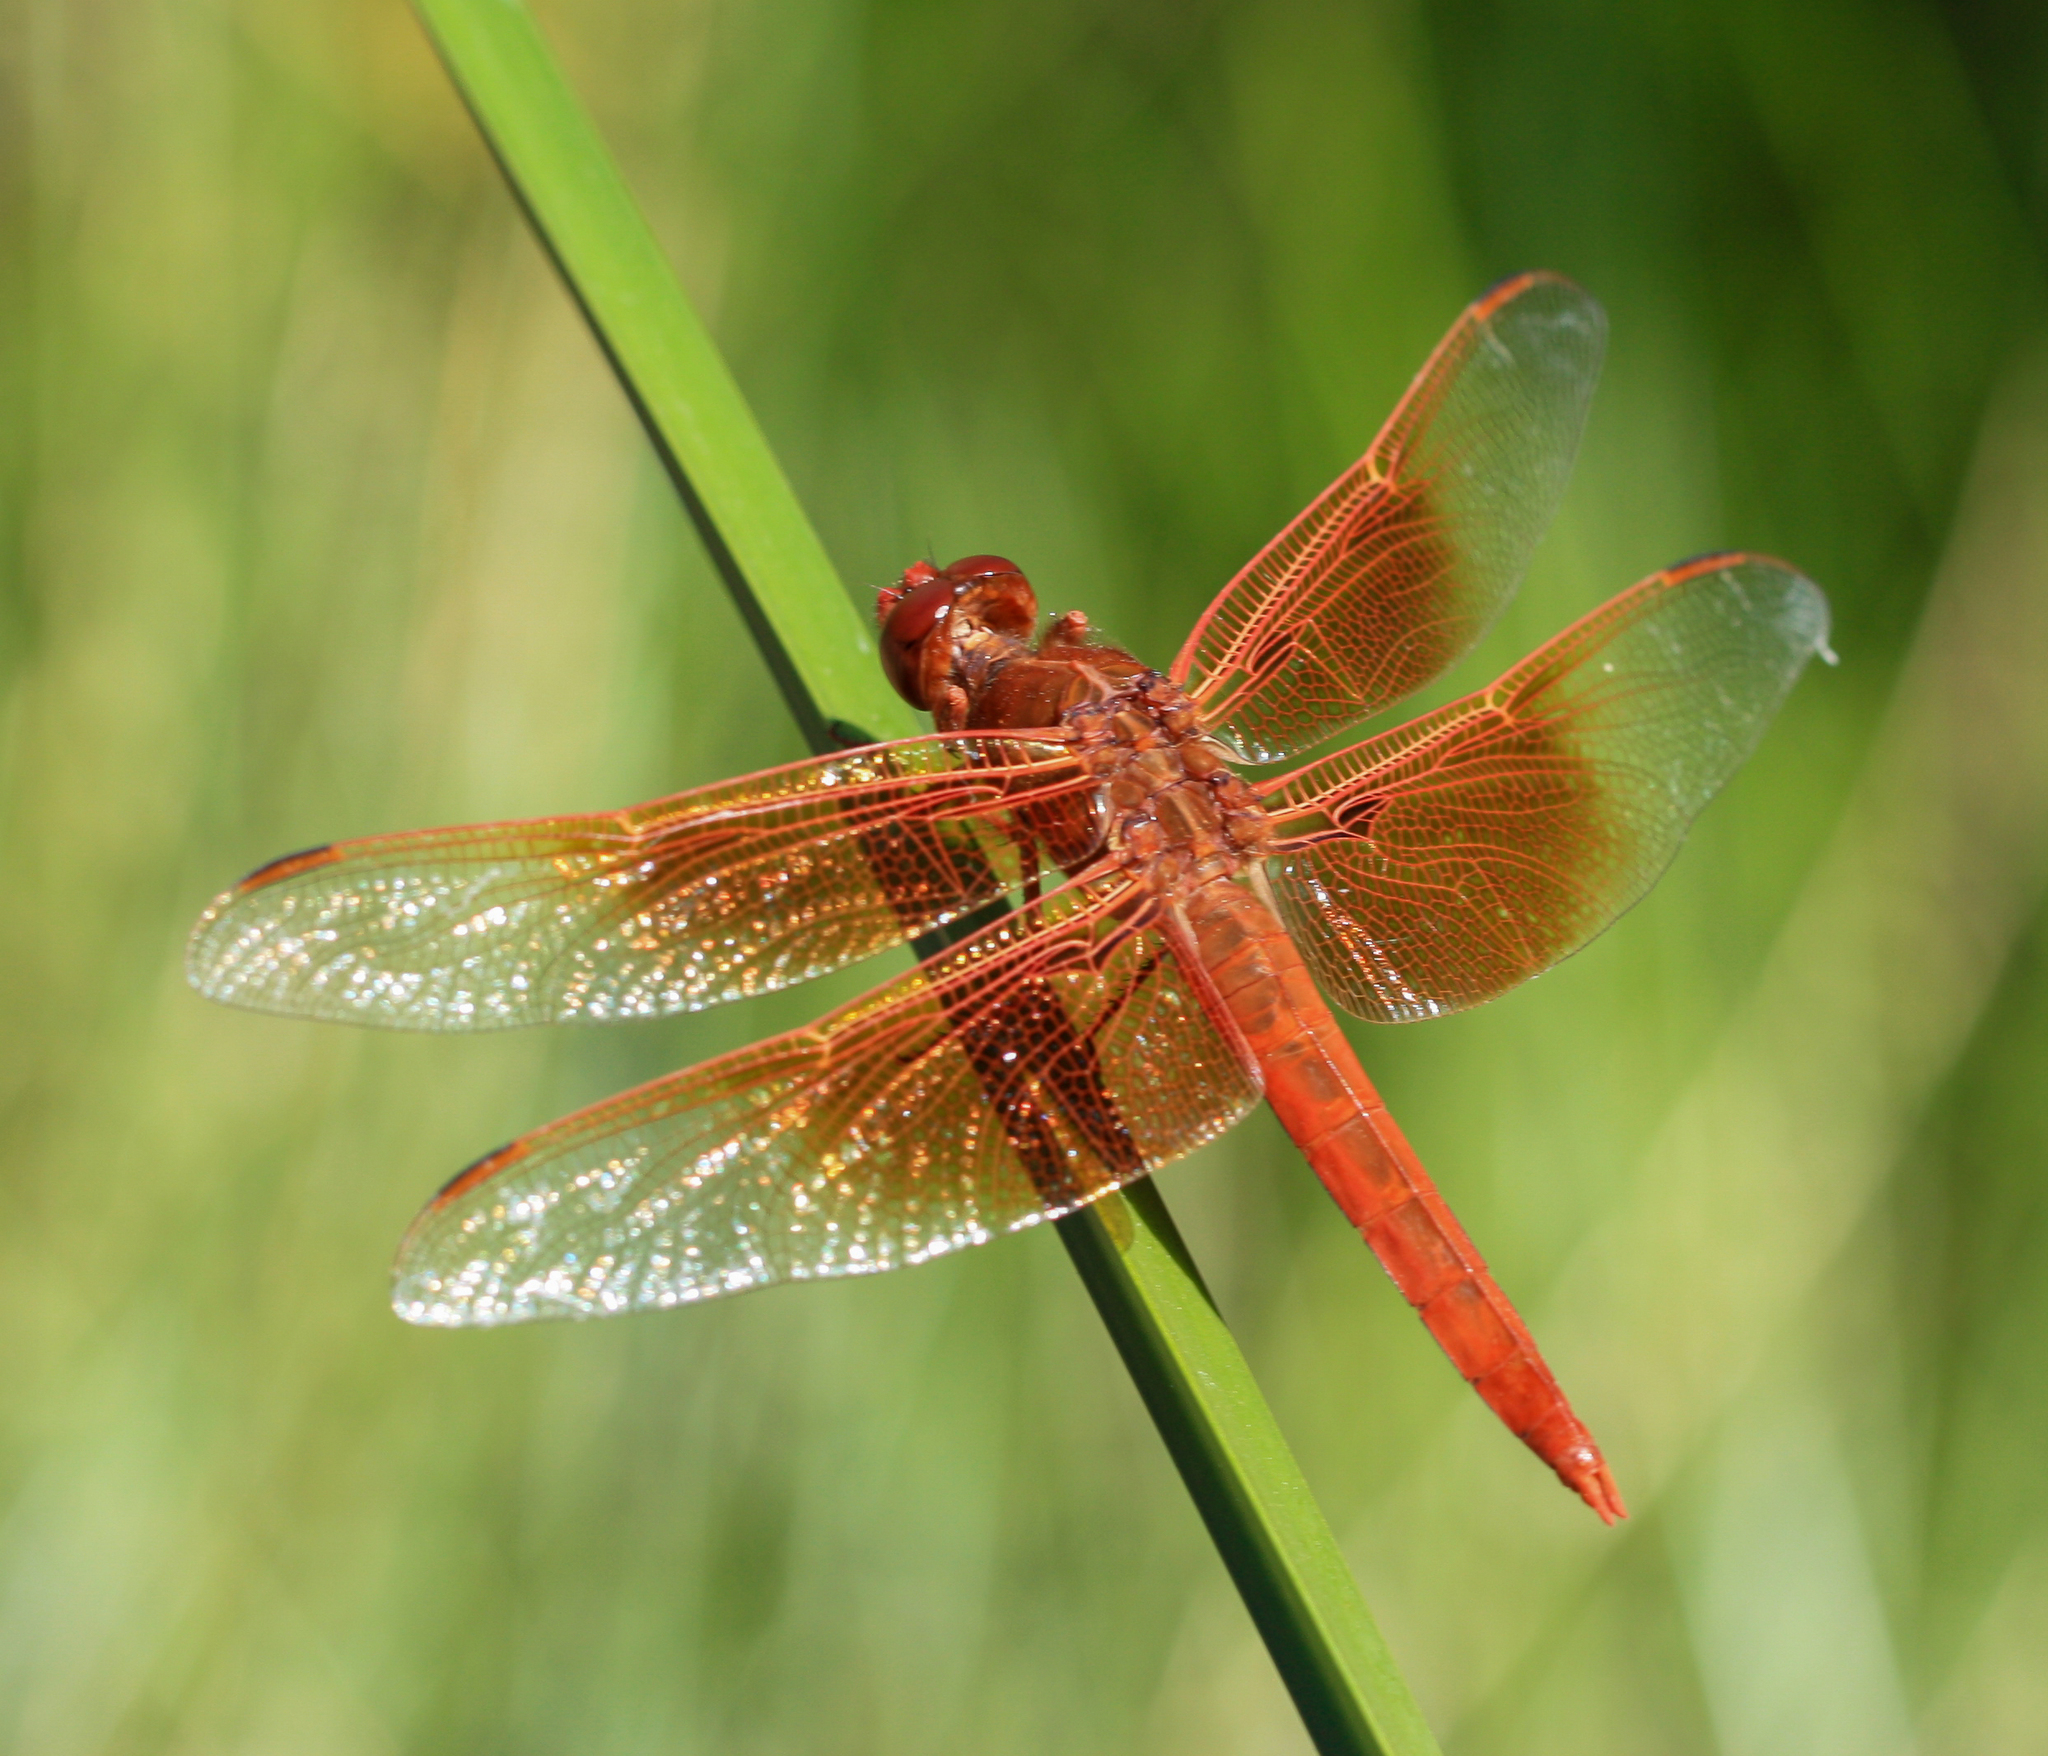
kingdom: Animalia
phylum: Arthropoda
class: Insecta
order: Odonata
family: Libellulidae
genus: Libellula
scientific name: Libellula saturata
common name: Flame skimmer
